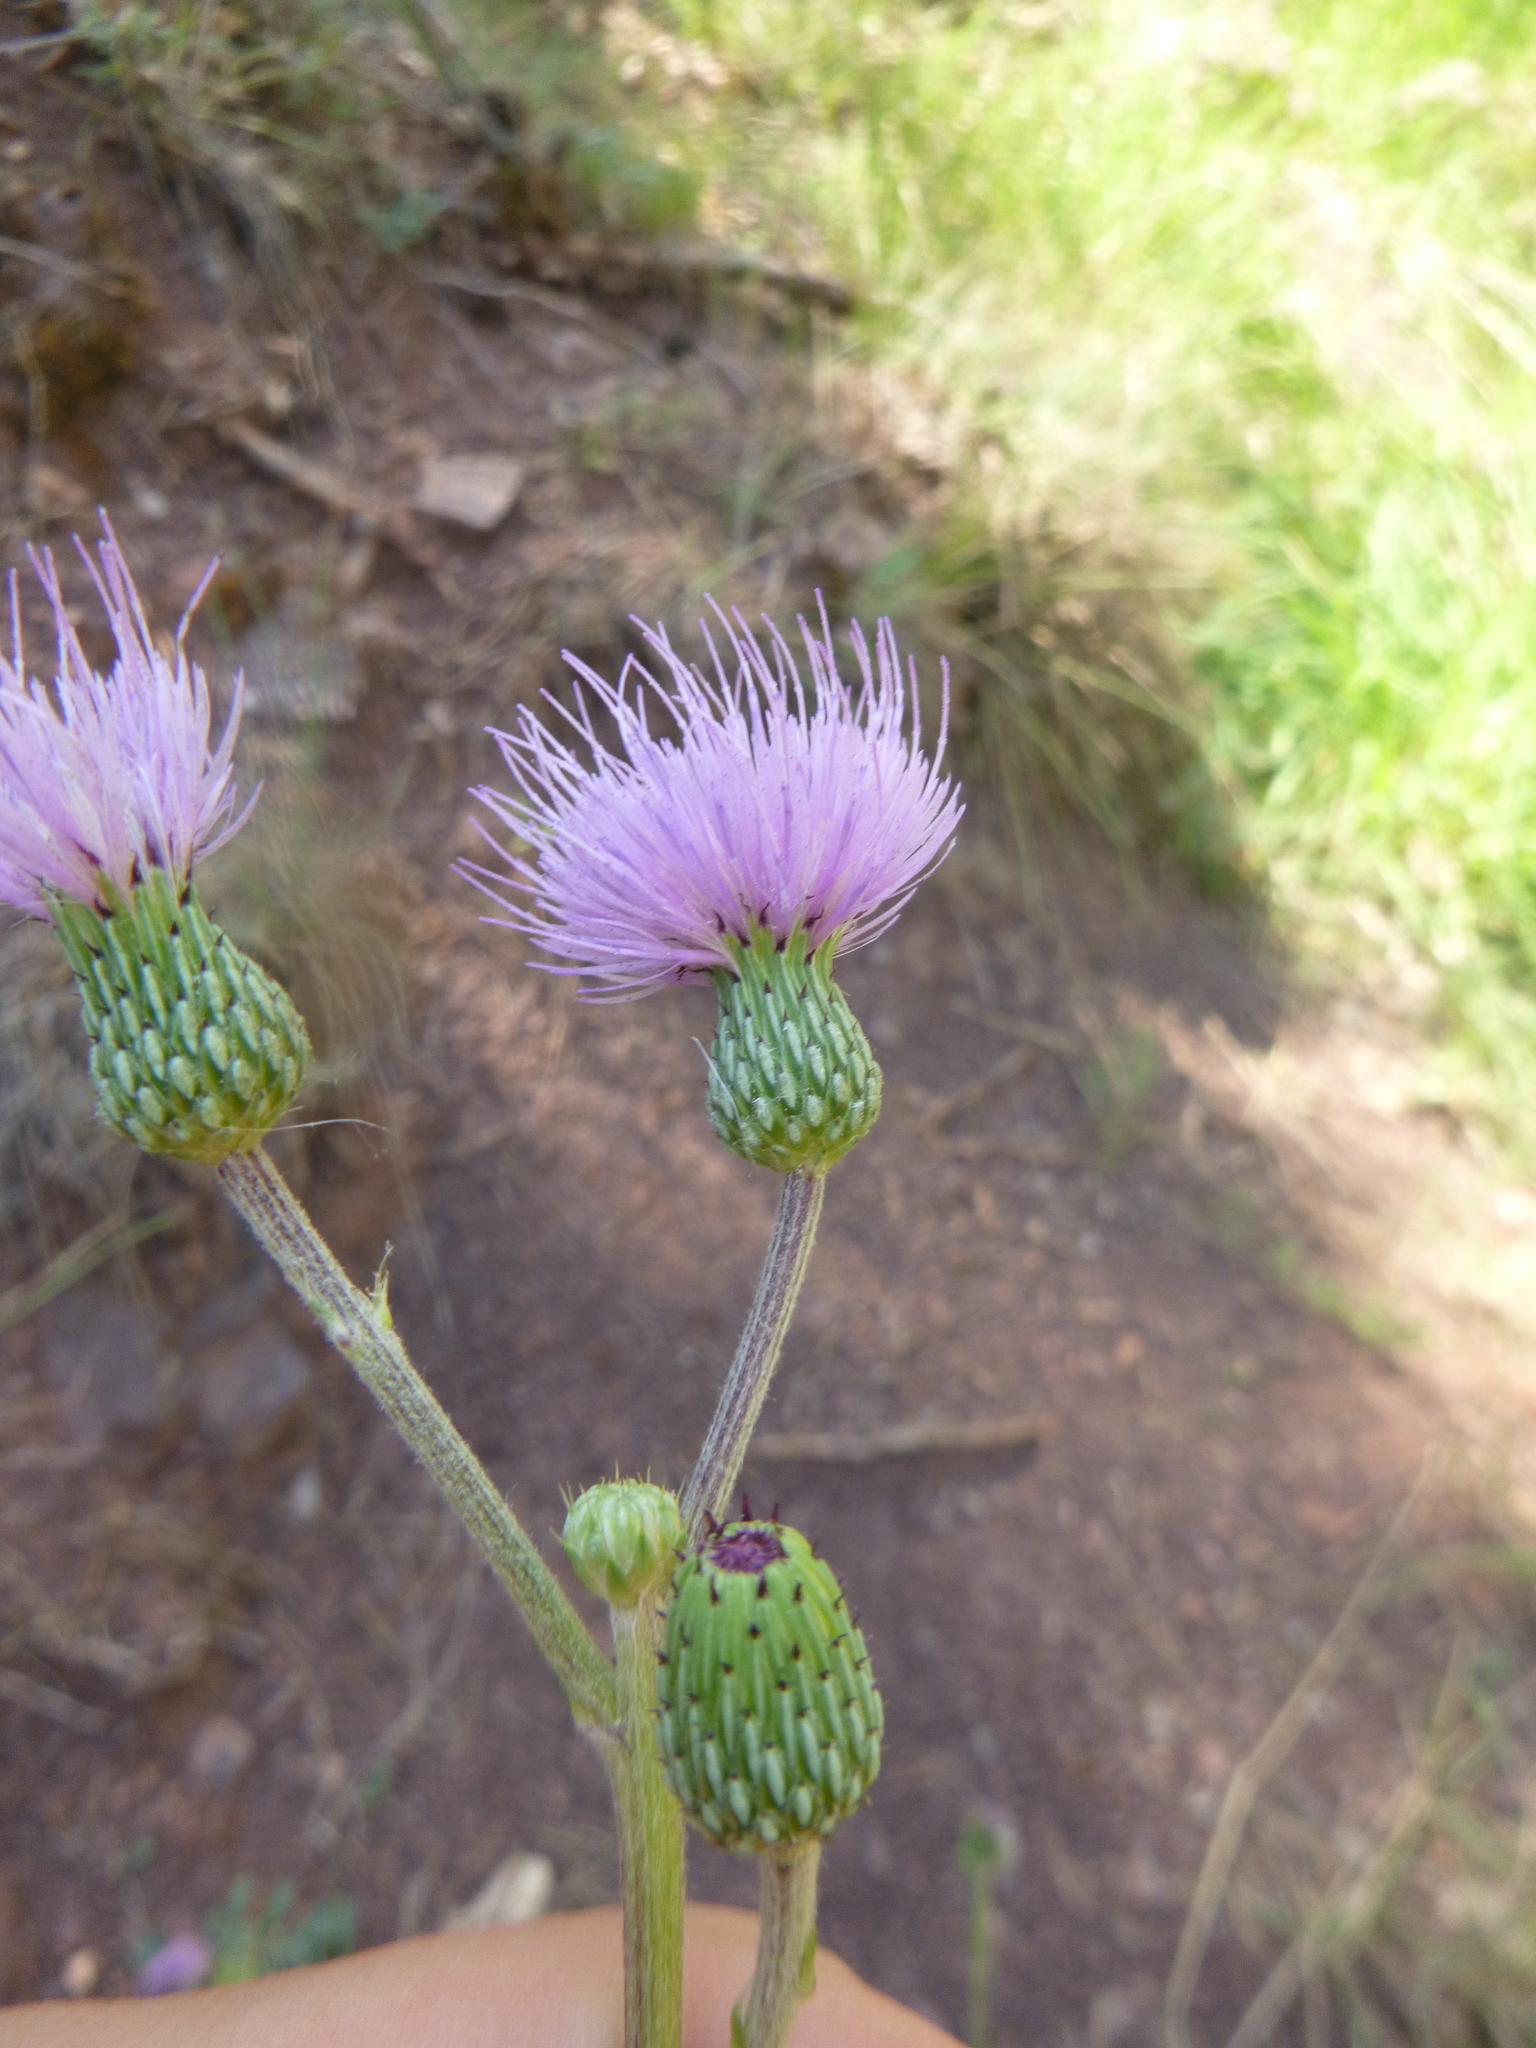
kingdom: Plantae
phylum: Tracheophyta
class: Magnoliopsida
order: Asterales
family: Asteraceae
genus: Cirsium
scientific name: Cirsium monspessulanum
